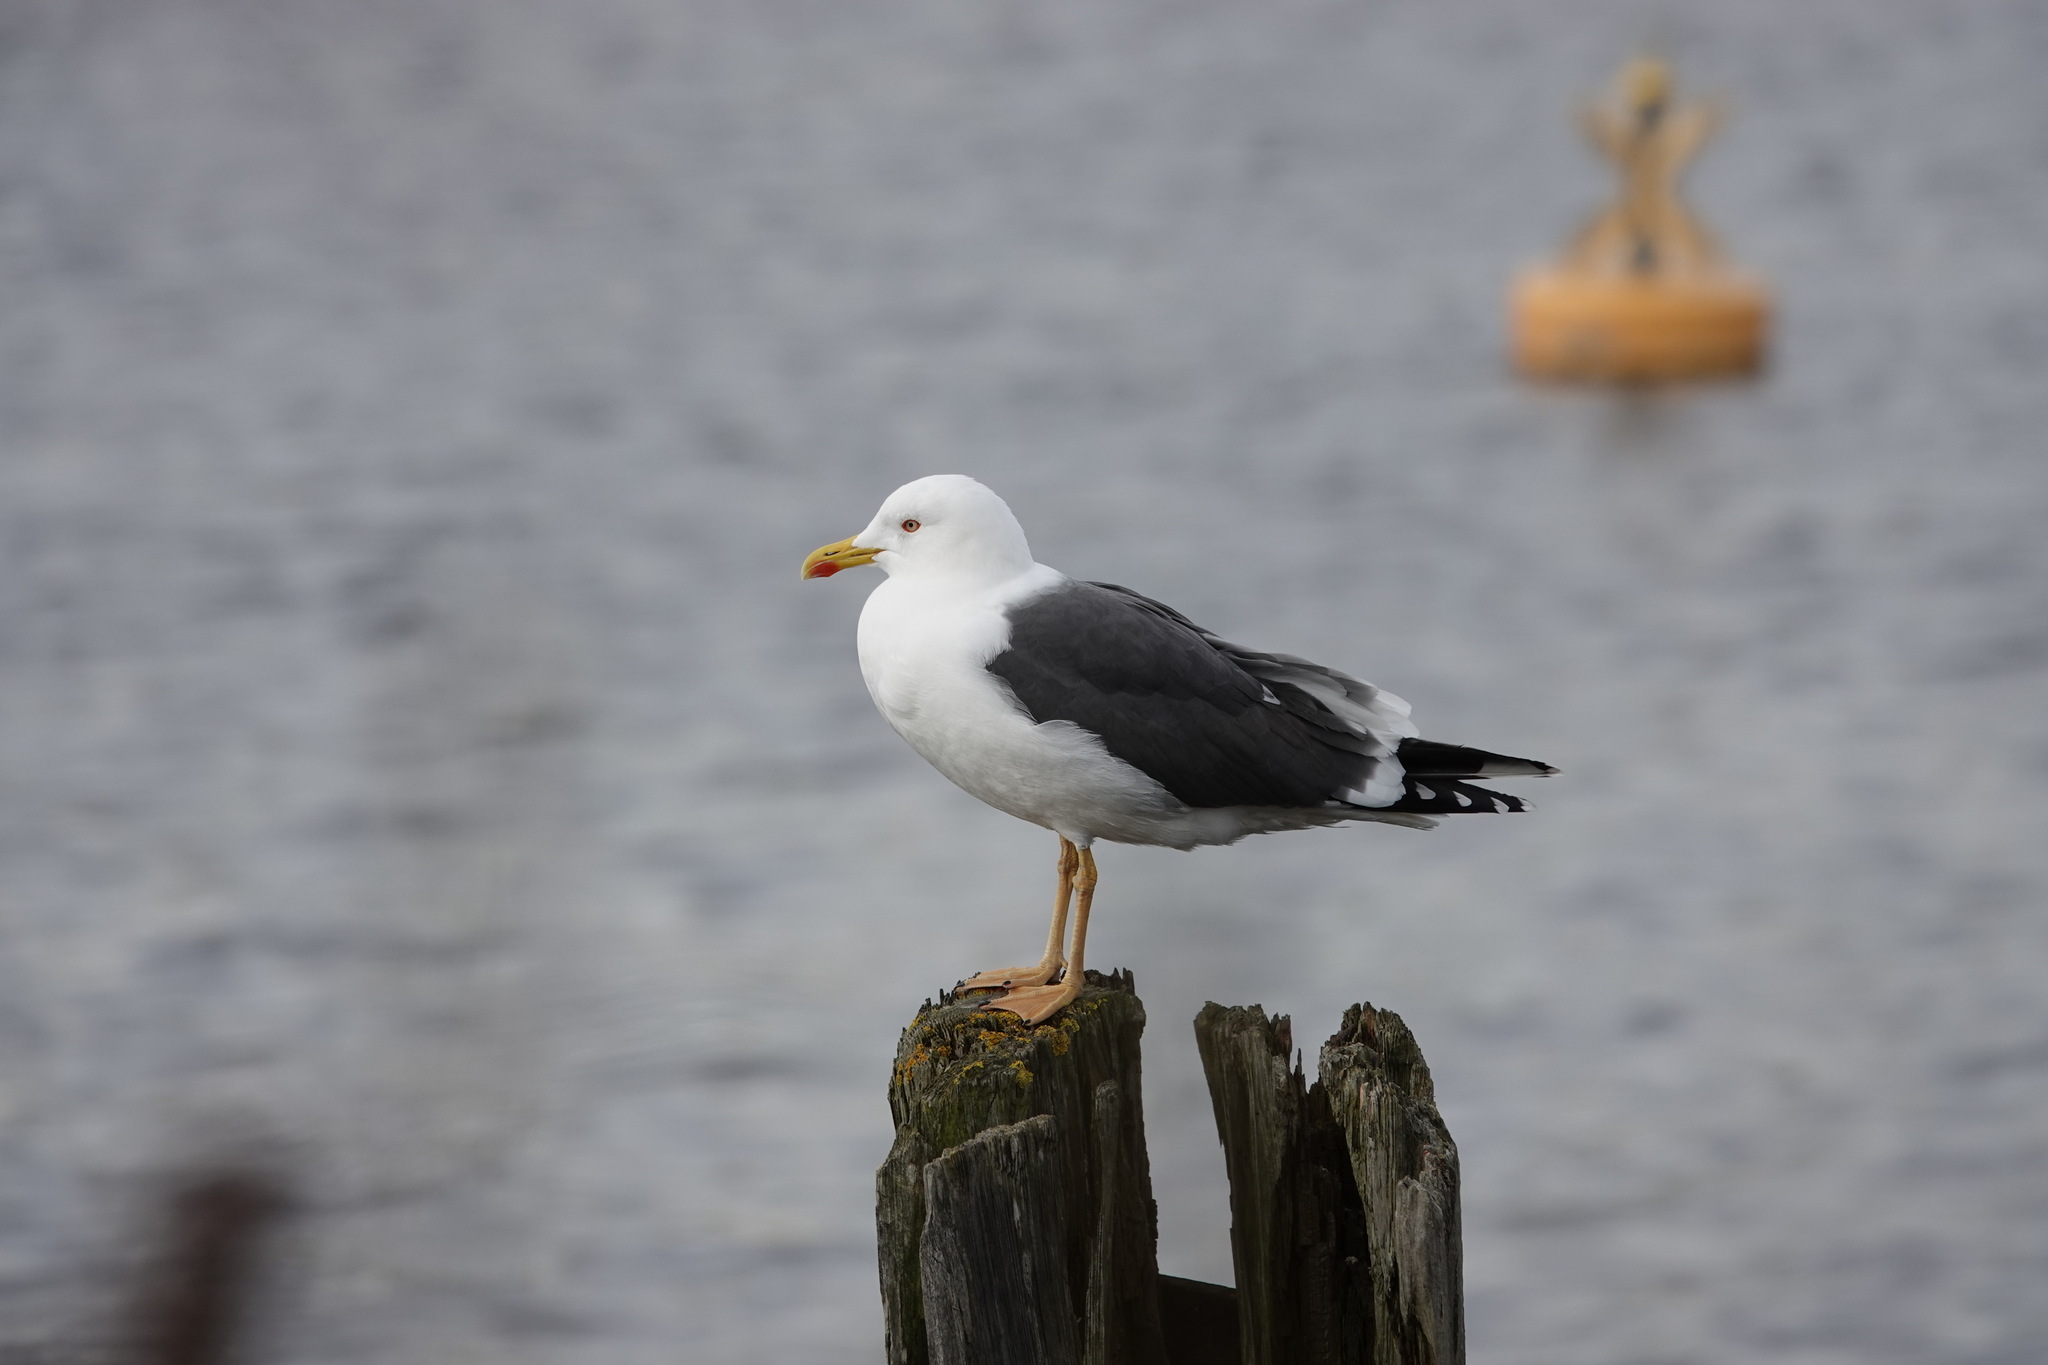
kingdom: Animalia
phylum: Chordata
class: Aves
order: Charadriiformes
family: Laridae
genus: Larus
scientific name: Larus fuscus
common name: Lesser black-backed gull
